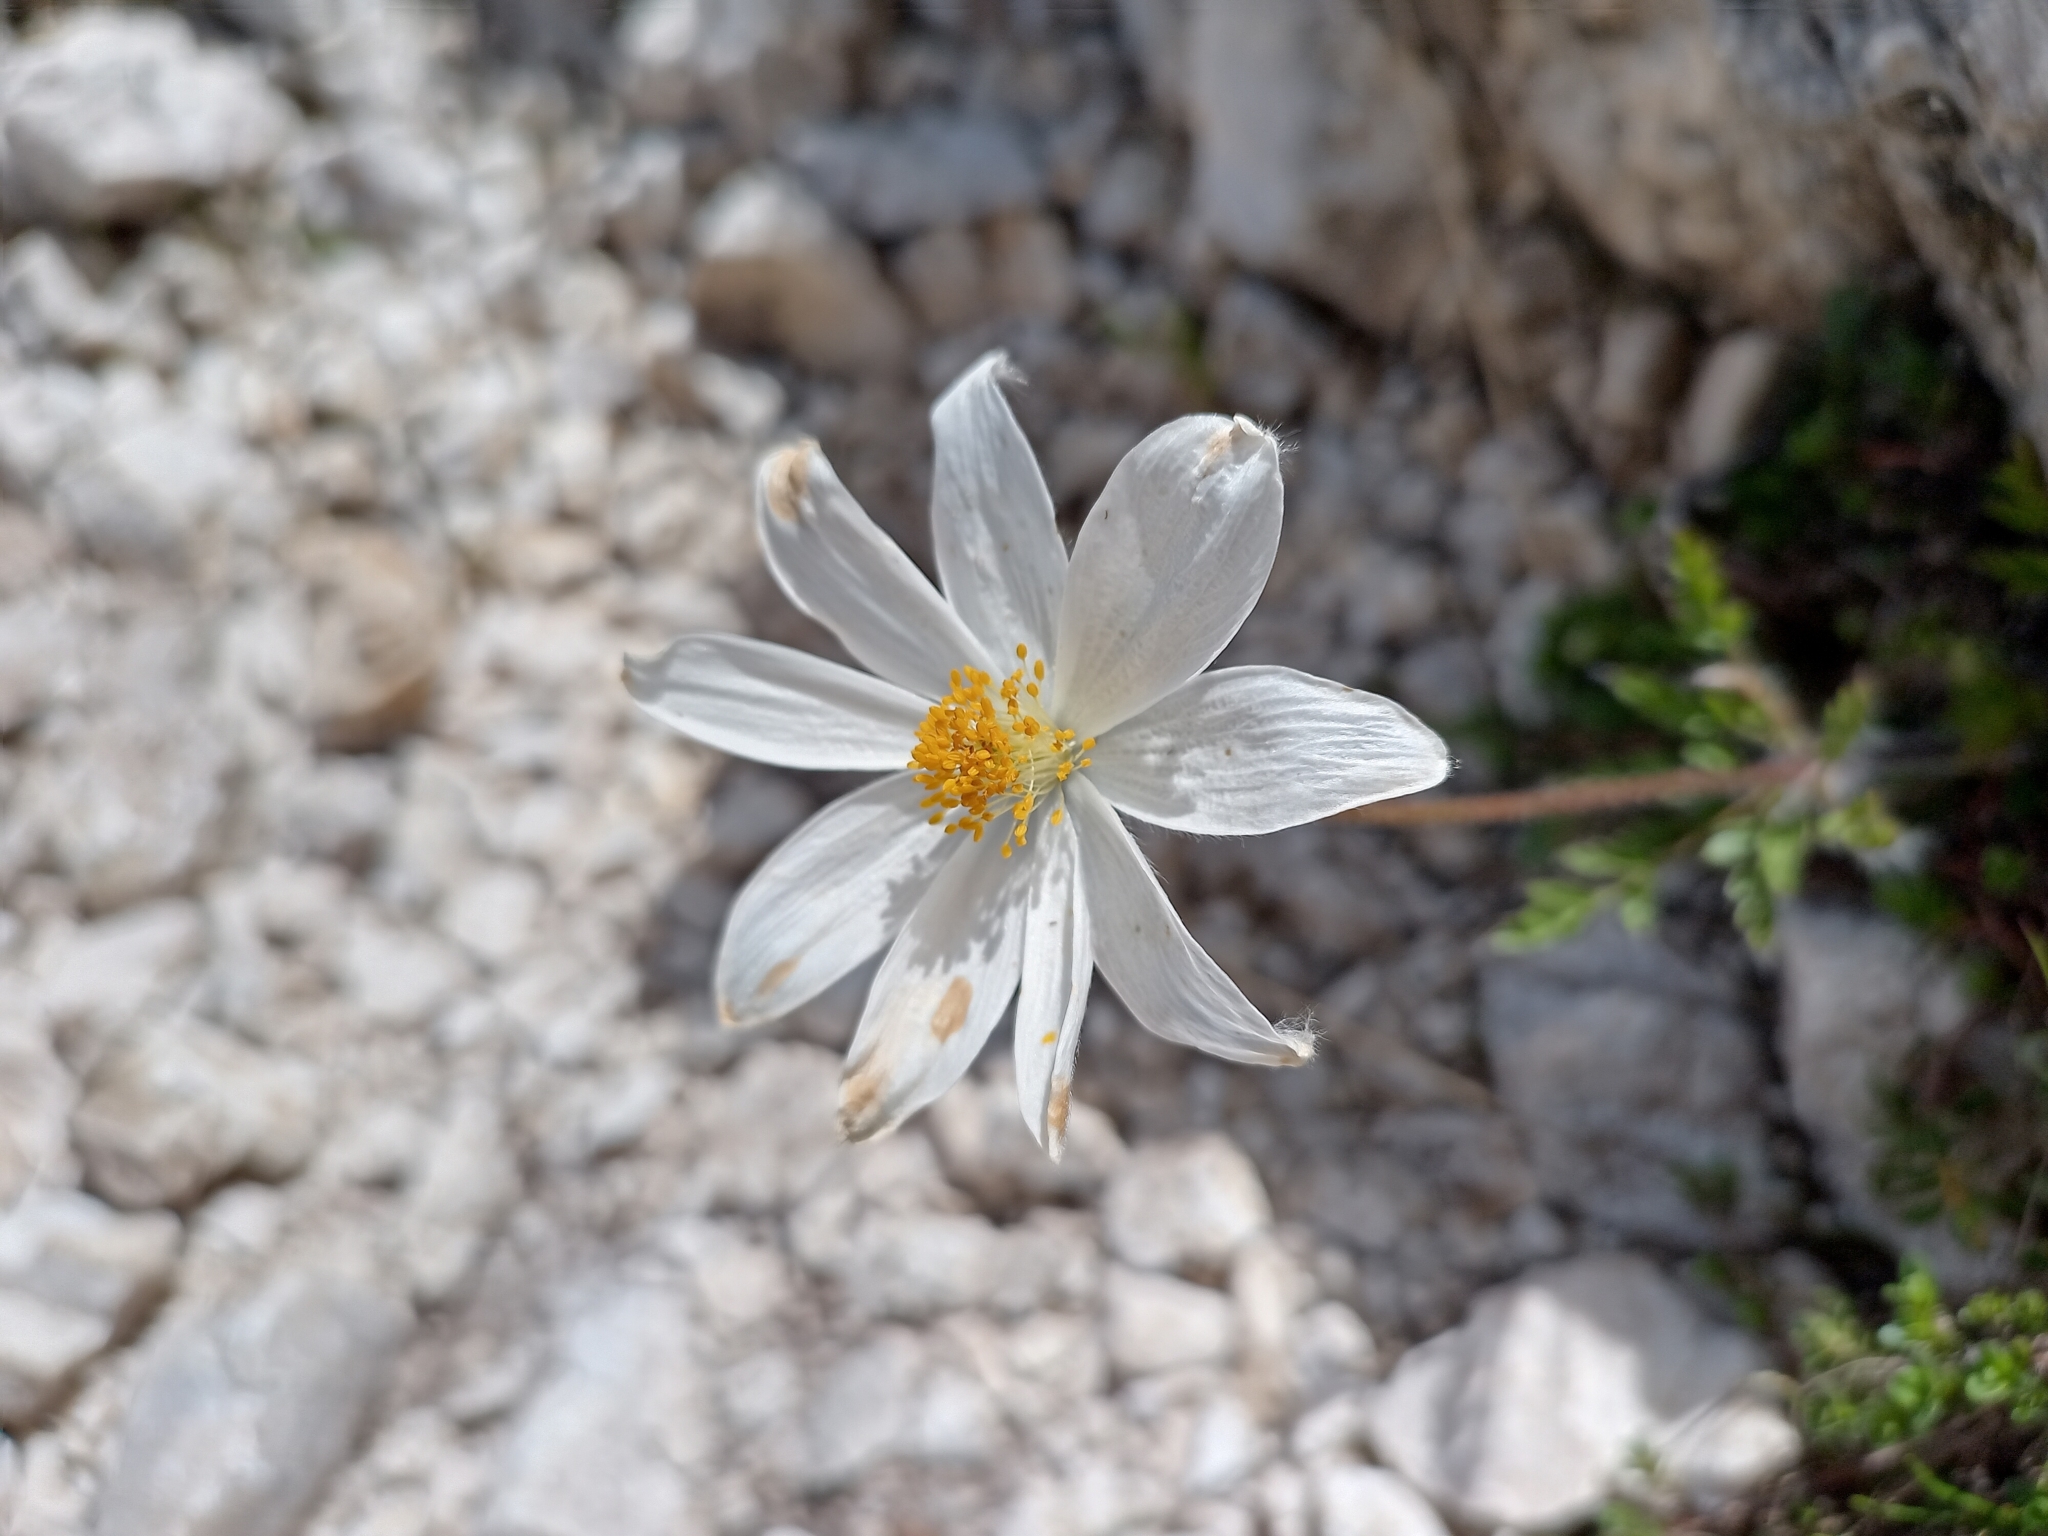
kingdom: Plantae
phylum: Tracheophyta
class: Magnoliopsida
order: Ranunculales
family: Ranunculaceae
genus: Pulsatilla
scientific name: Pulsatilla alpina
